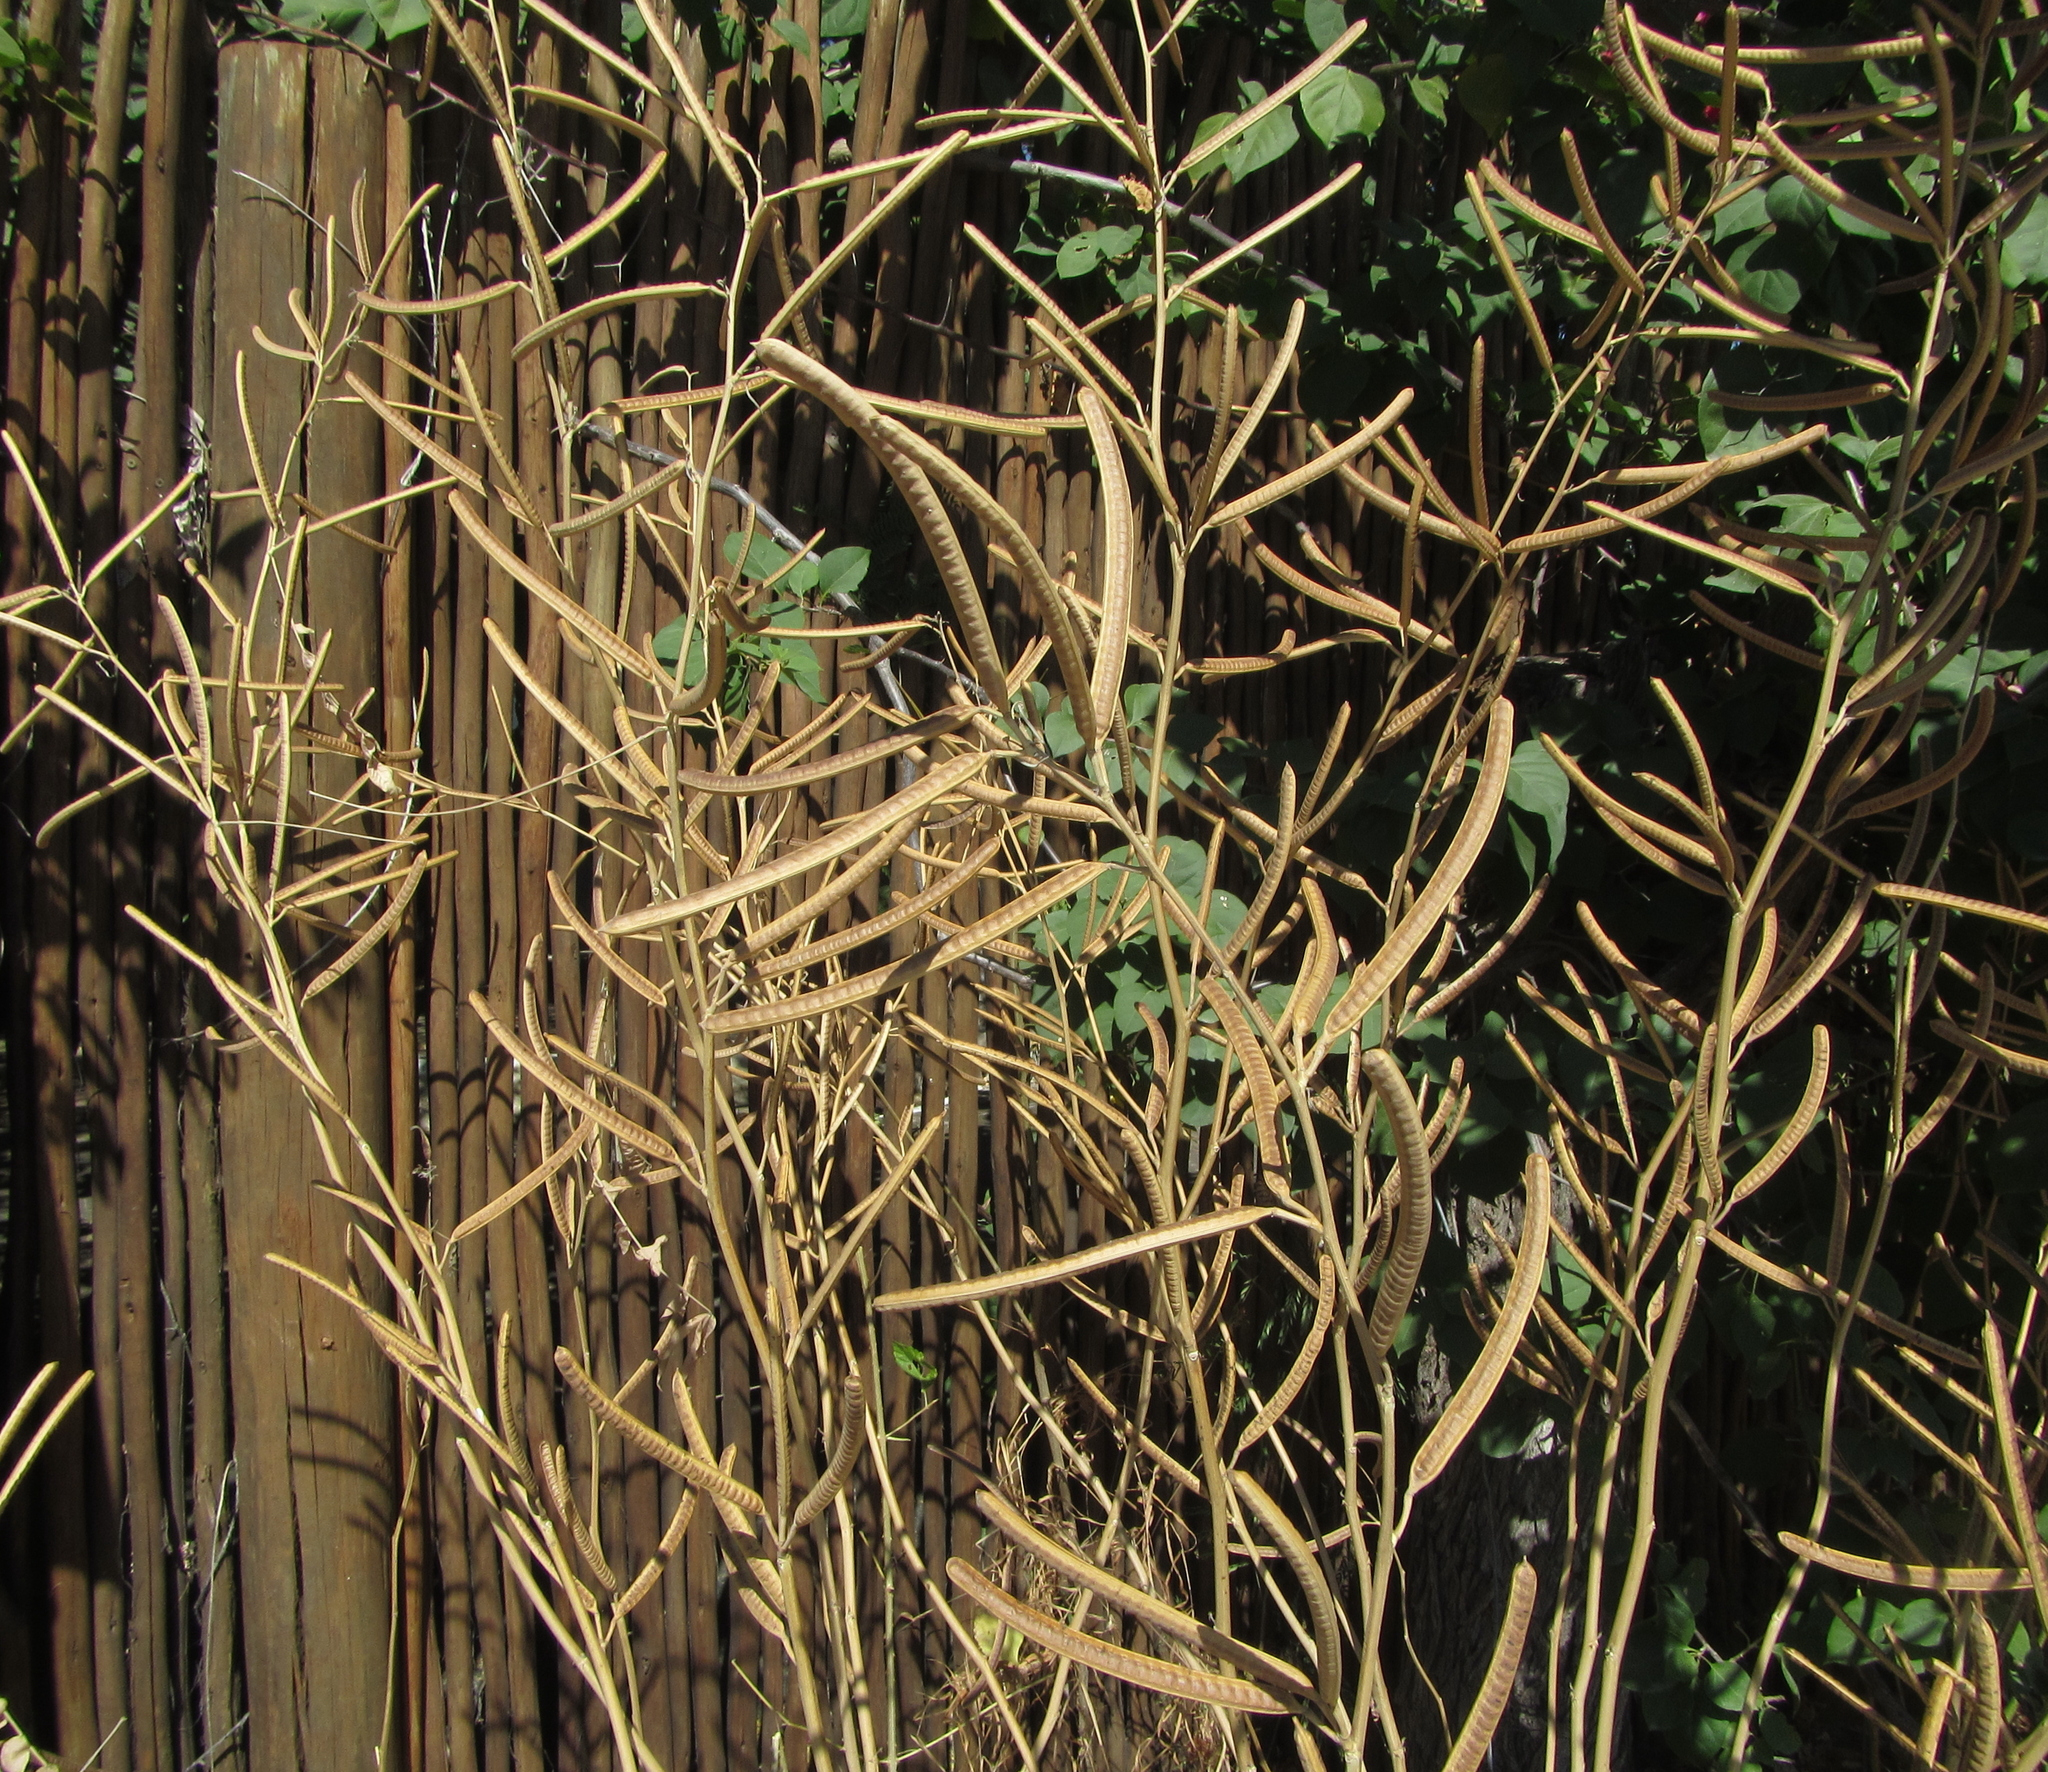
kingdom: Plantae
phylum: Tracheophyta
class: Magnoliopsida
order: Fabales
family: Fabaceae
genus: Senna
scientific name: Senna occidentalis
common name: Septicweed
